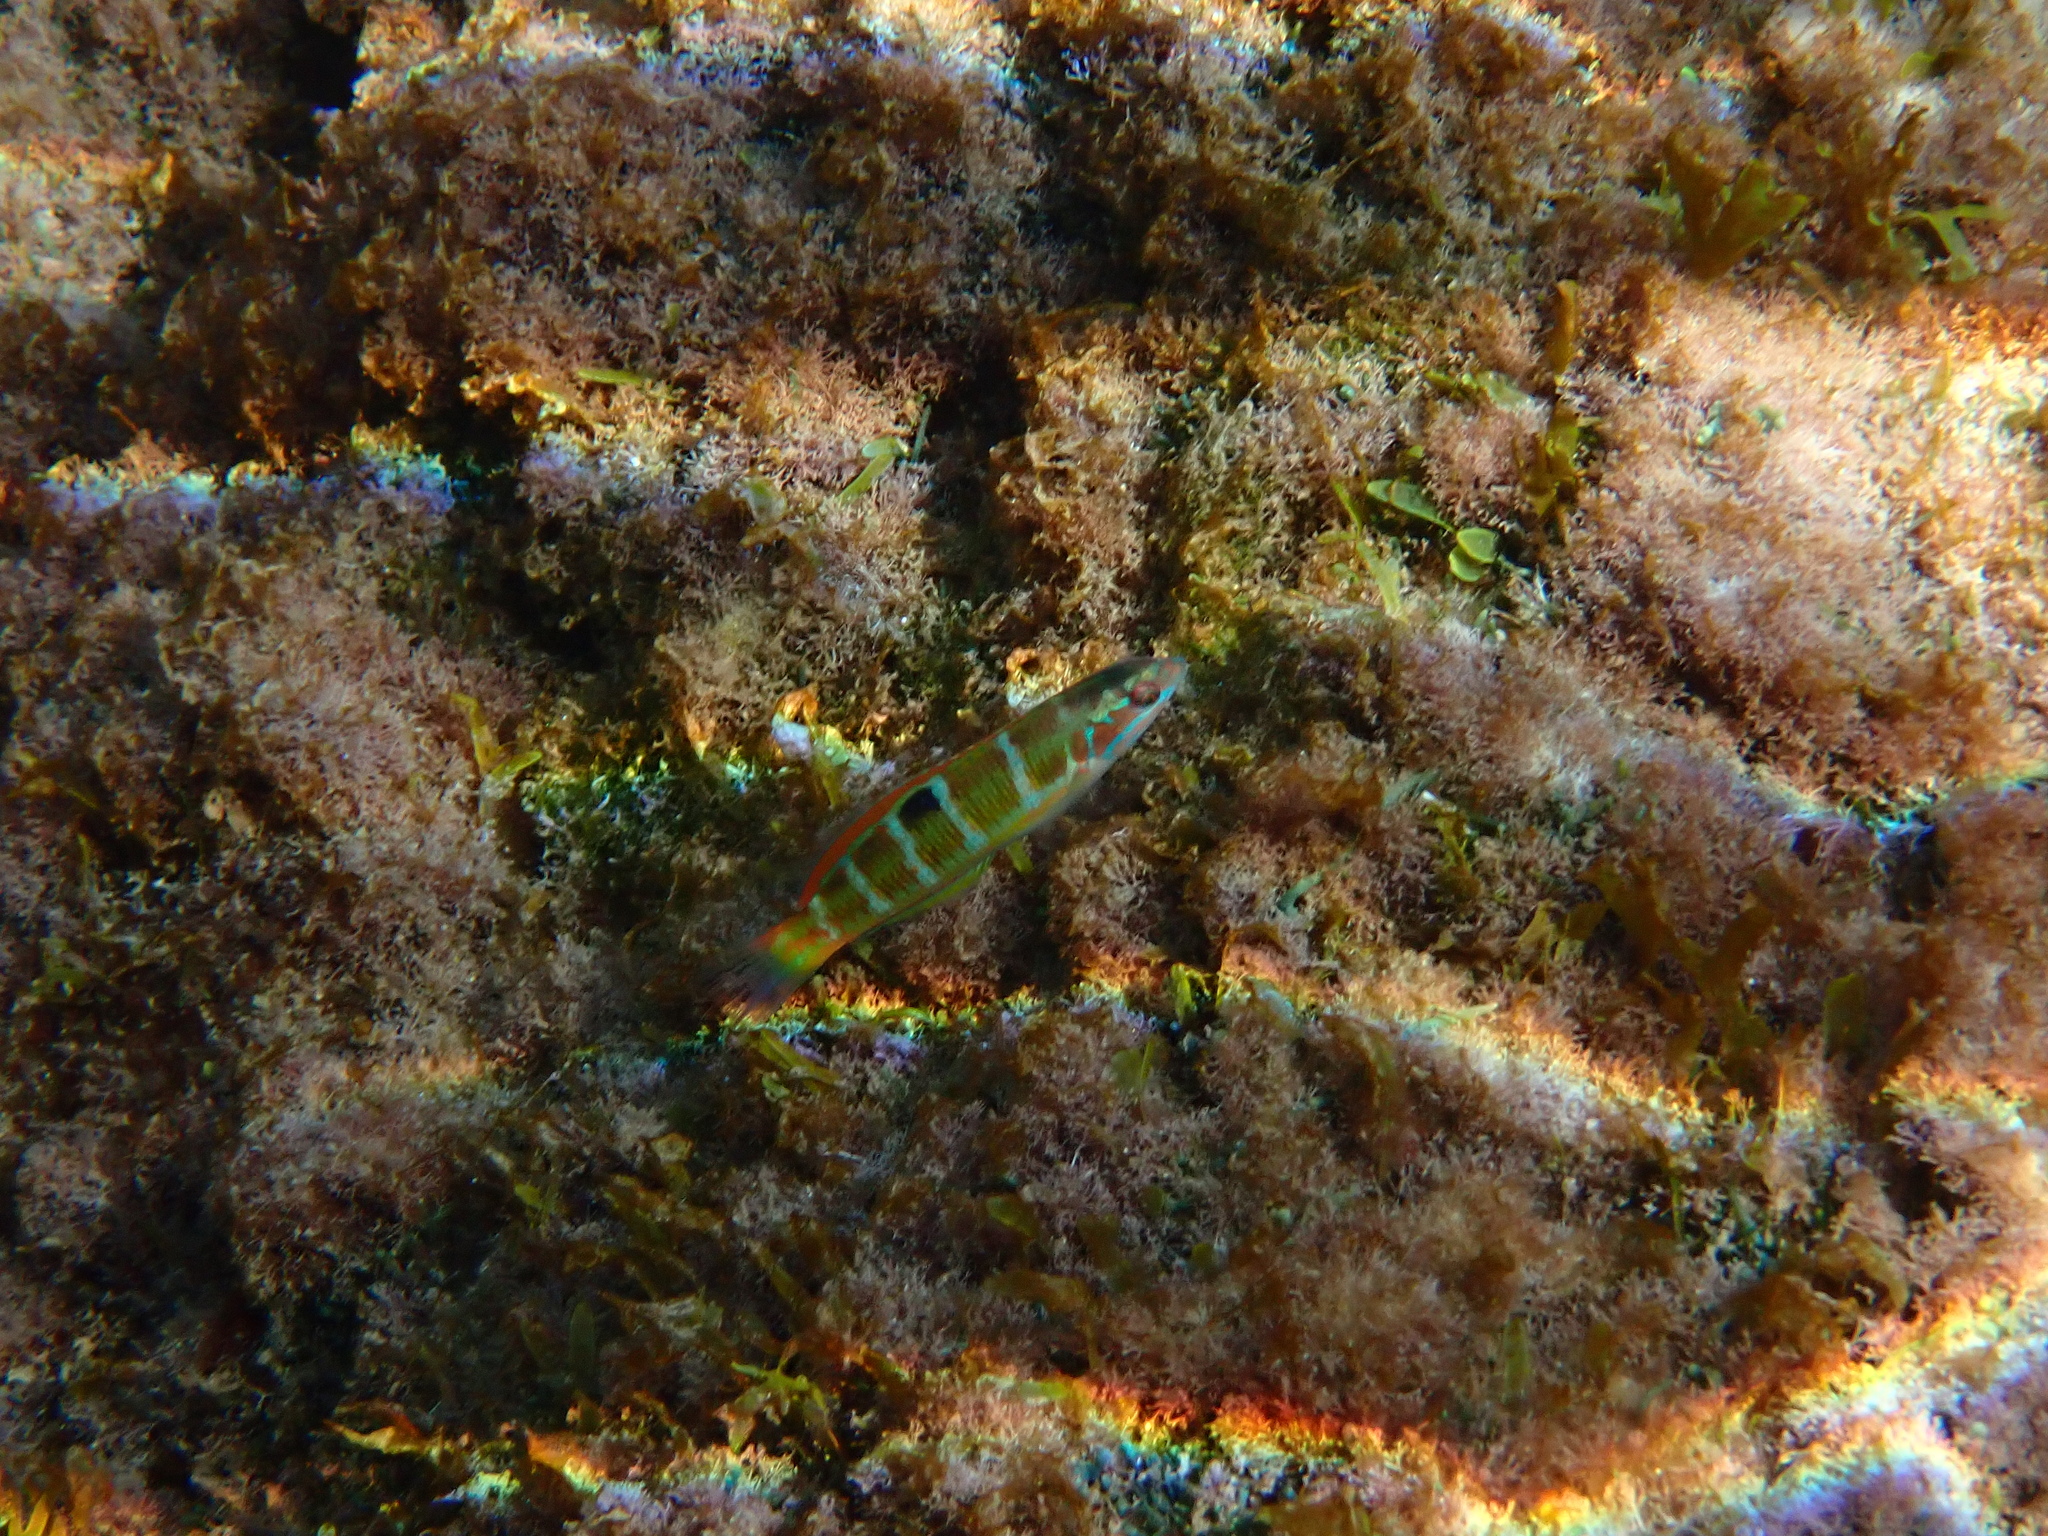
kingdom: Animalia
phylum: Chordata
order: Perciformes
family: Labridae
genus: Thalassoma
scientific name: Thalassoma pavo
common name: Ornate wrasse
